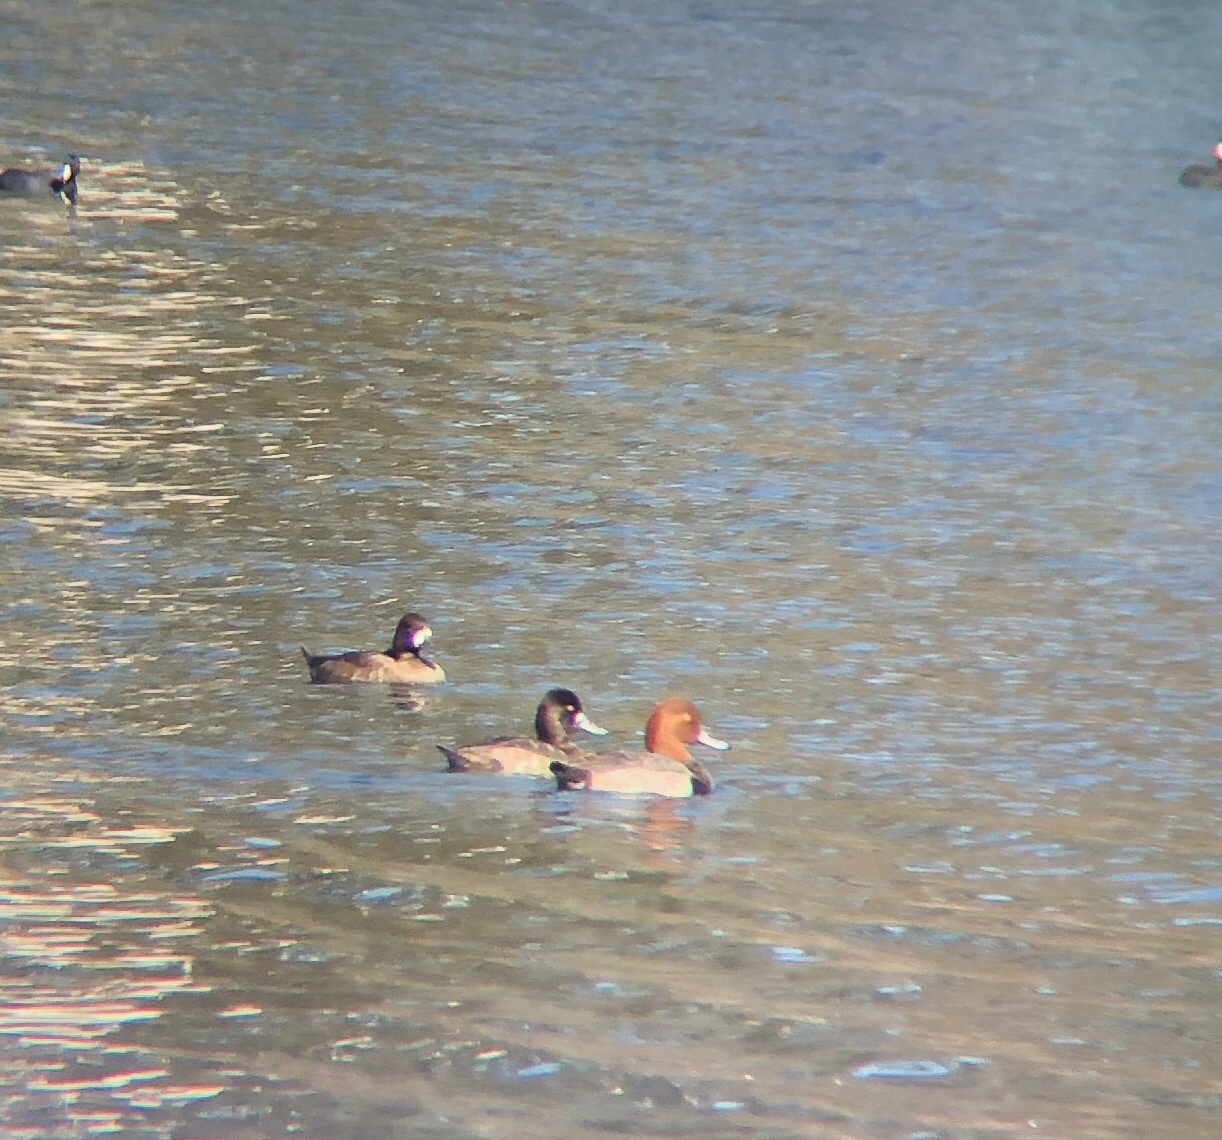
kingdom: Animalia
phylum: Chordata
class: Aves
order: Anseriformes
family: Anatidae
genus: Aythya
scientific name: Aythya americana
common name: Redhead
